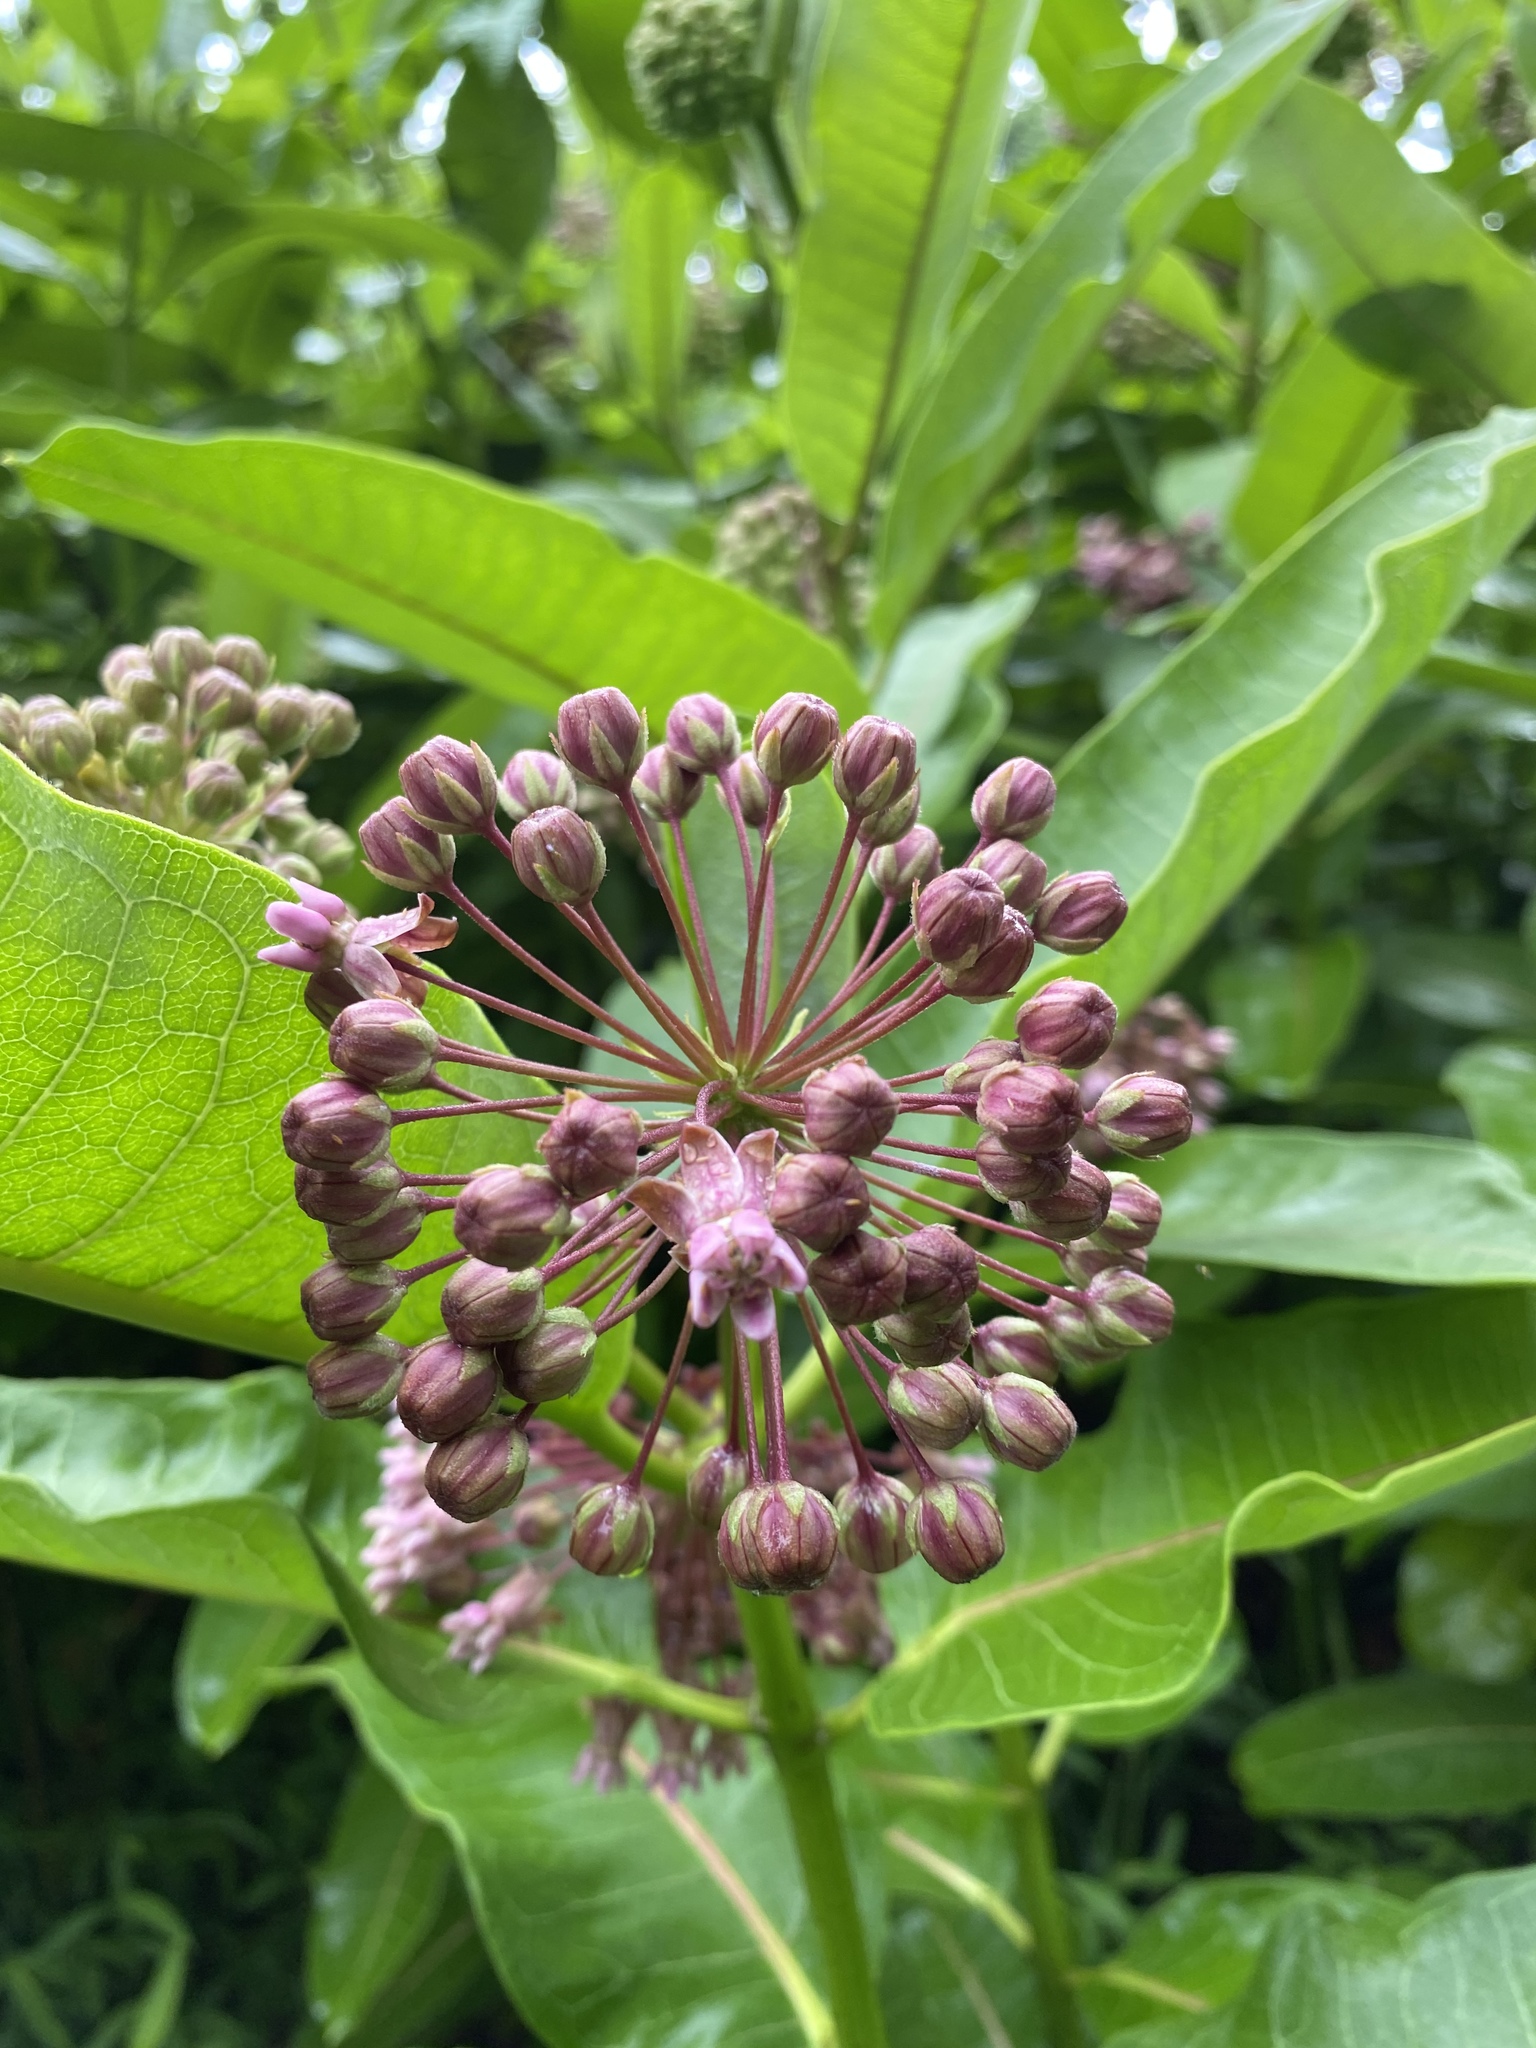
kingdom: Plantae
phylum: Tracheophyta
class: Magnoliopsida
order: Gentianales
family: Apocynaceae
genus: Asclepias
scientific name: Asclepias syriaca
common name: Common milkweed
